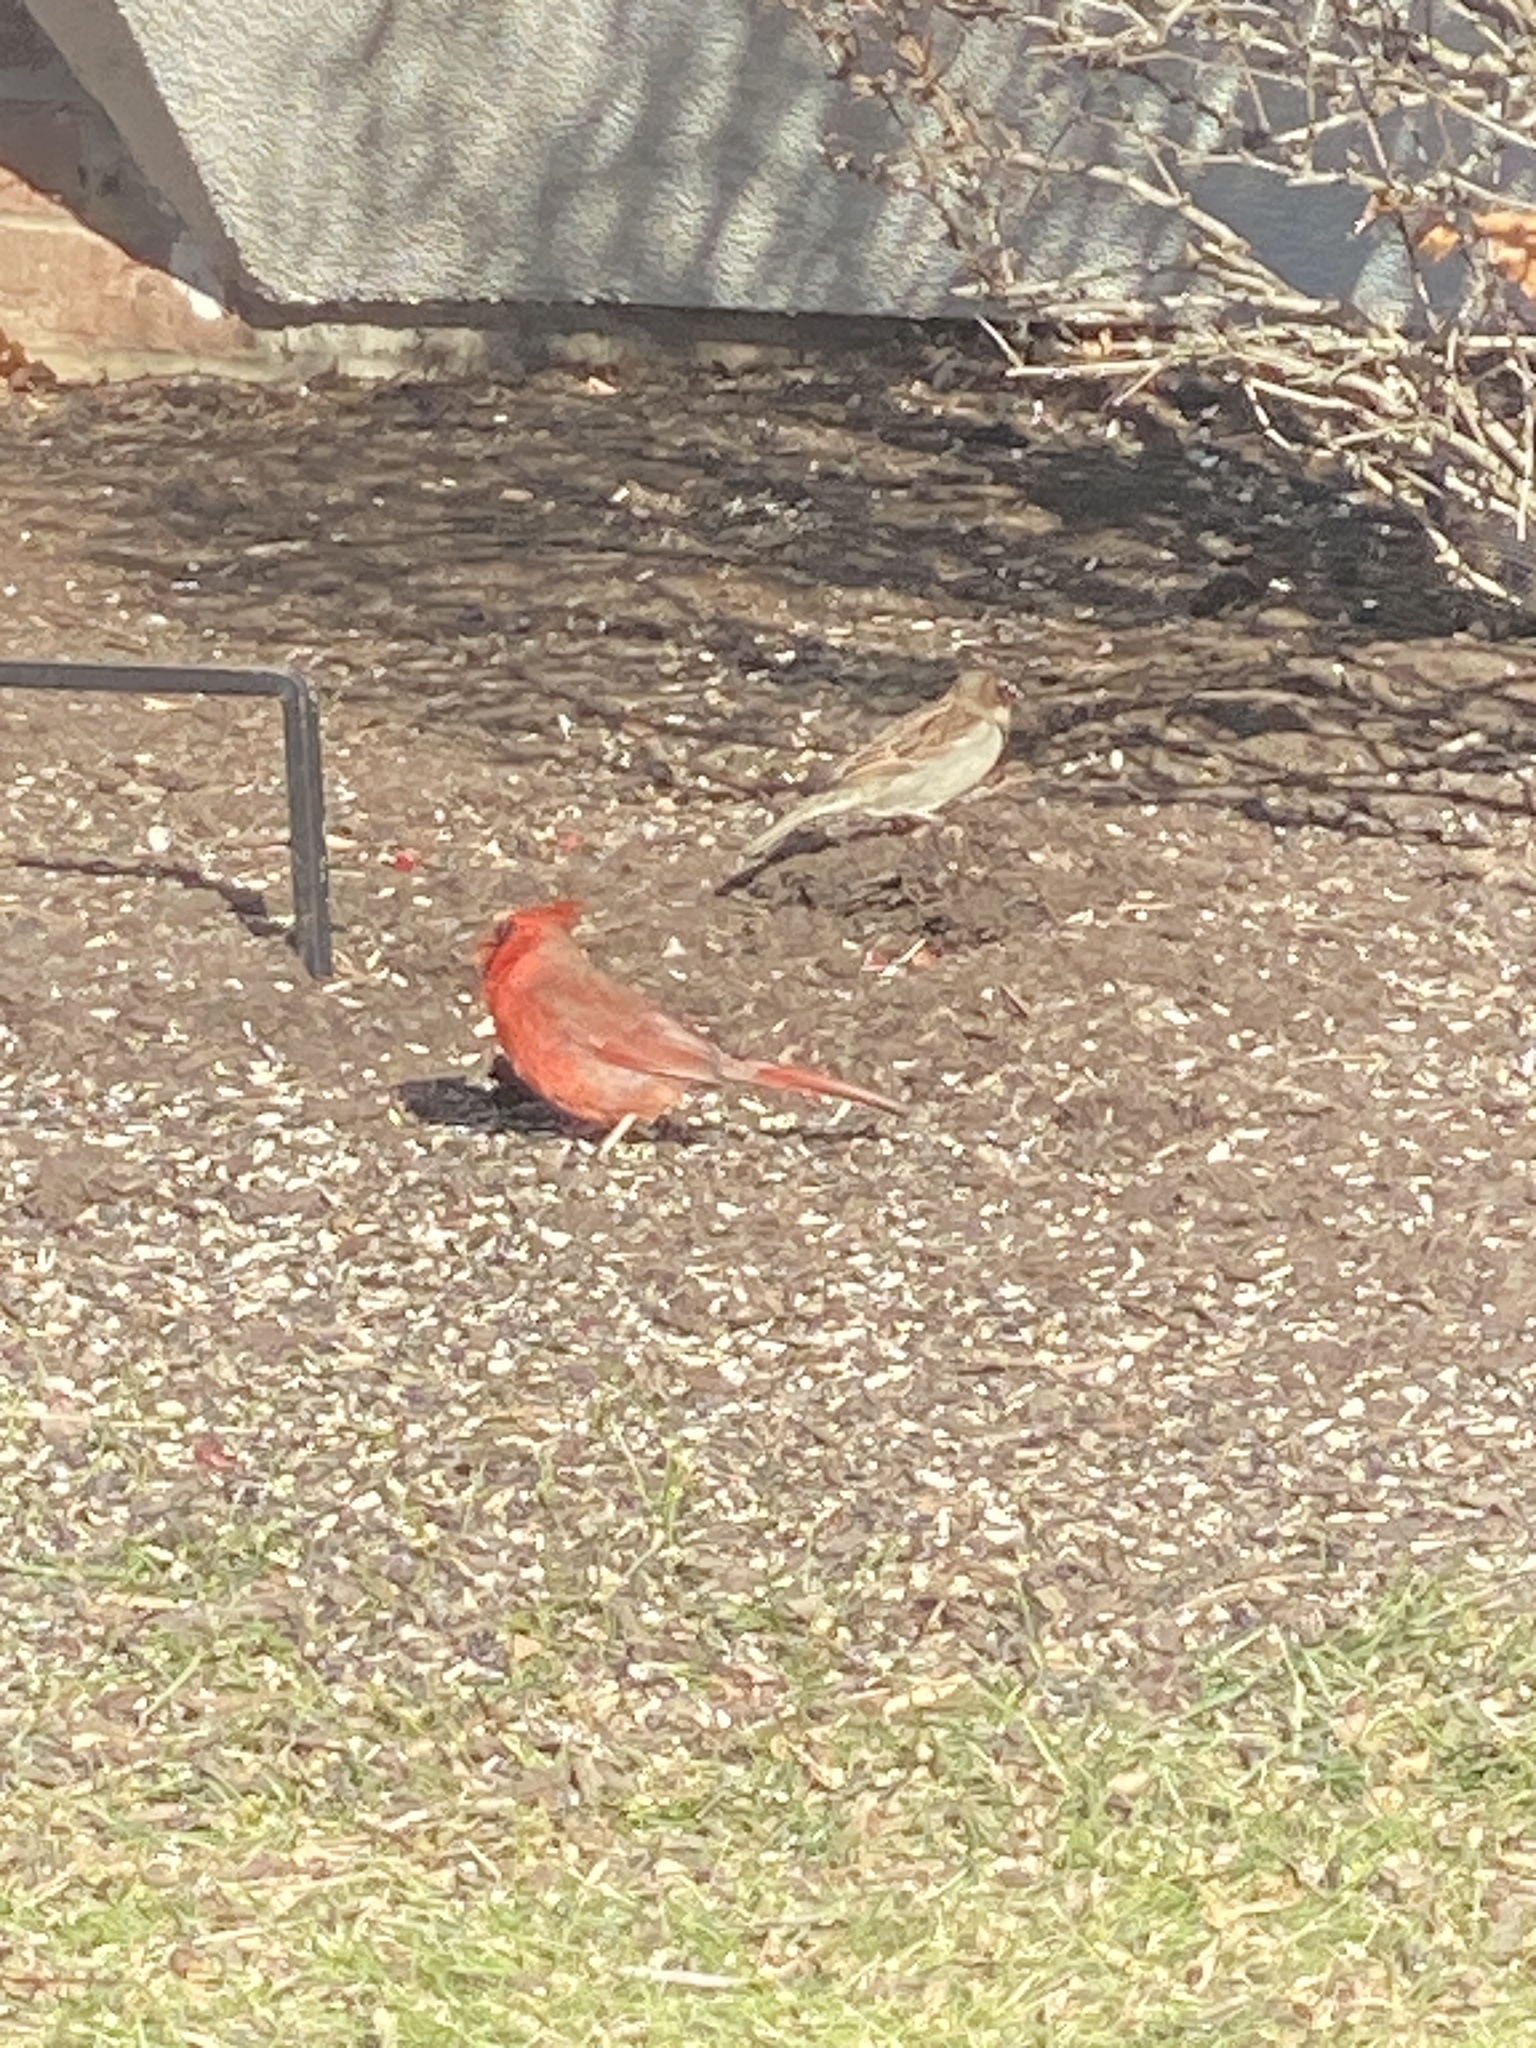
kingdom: Animalia
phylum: Chordata
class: Aves
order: Passeriformes
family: Cardinalidae
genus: Cardinalis
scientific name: Cardinalis cardinalis
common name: Northern cardinal
